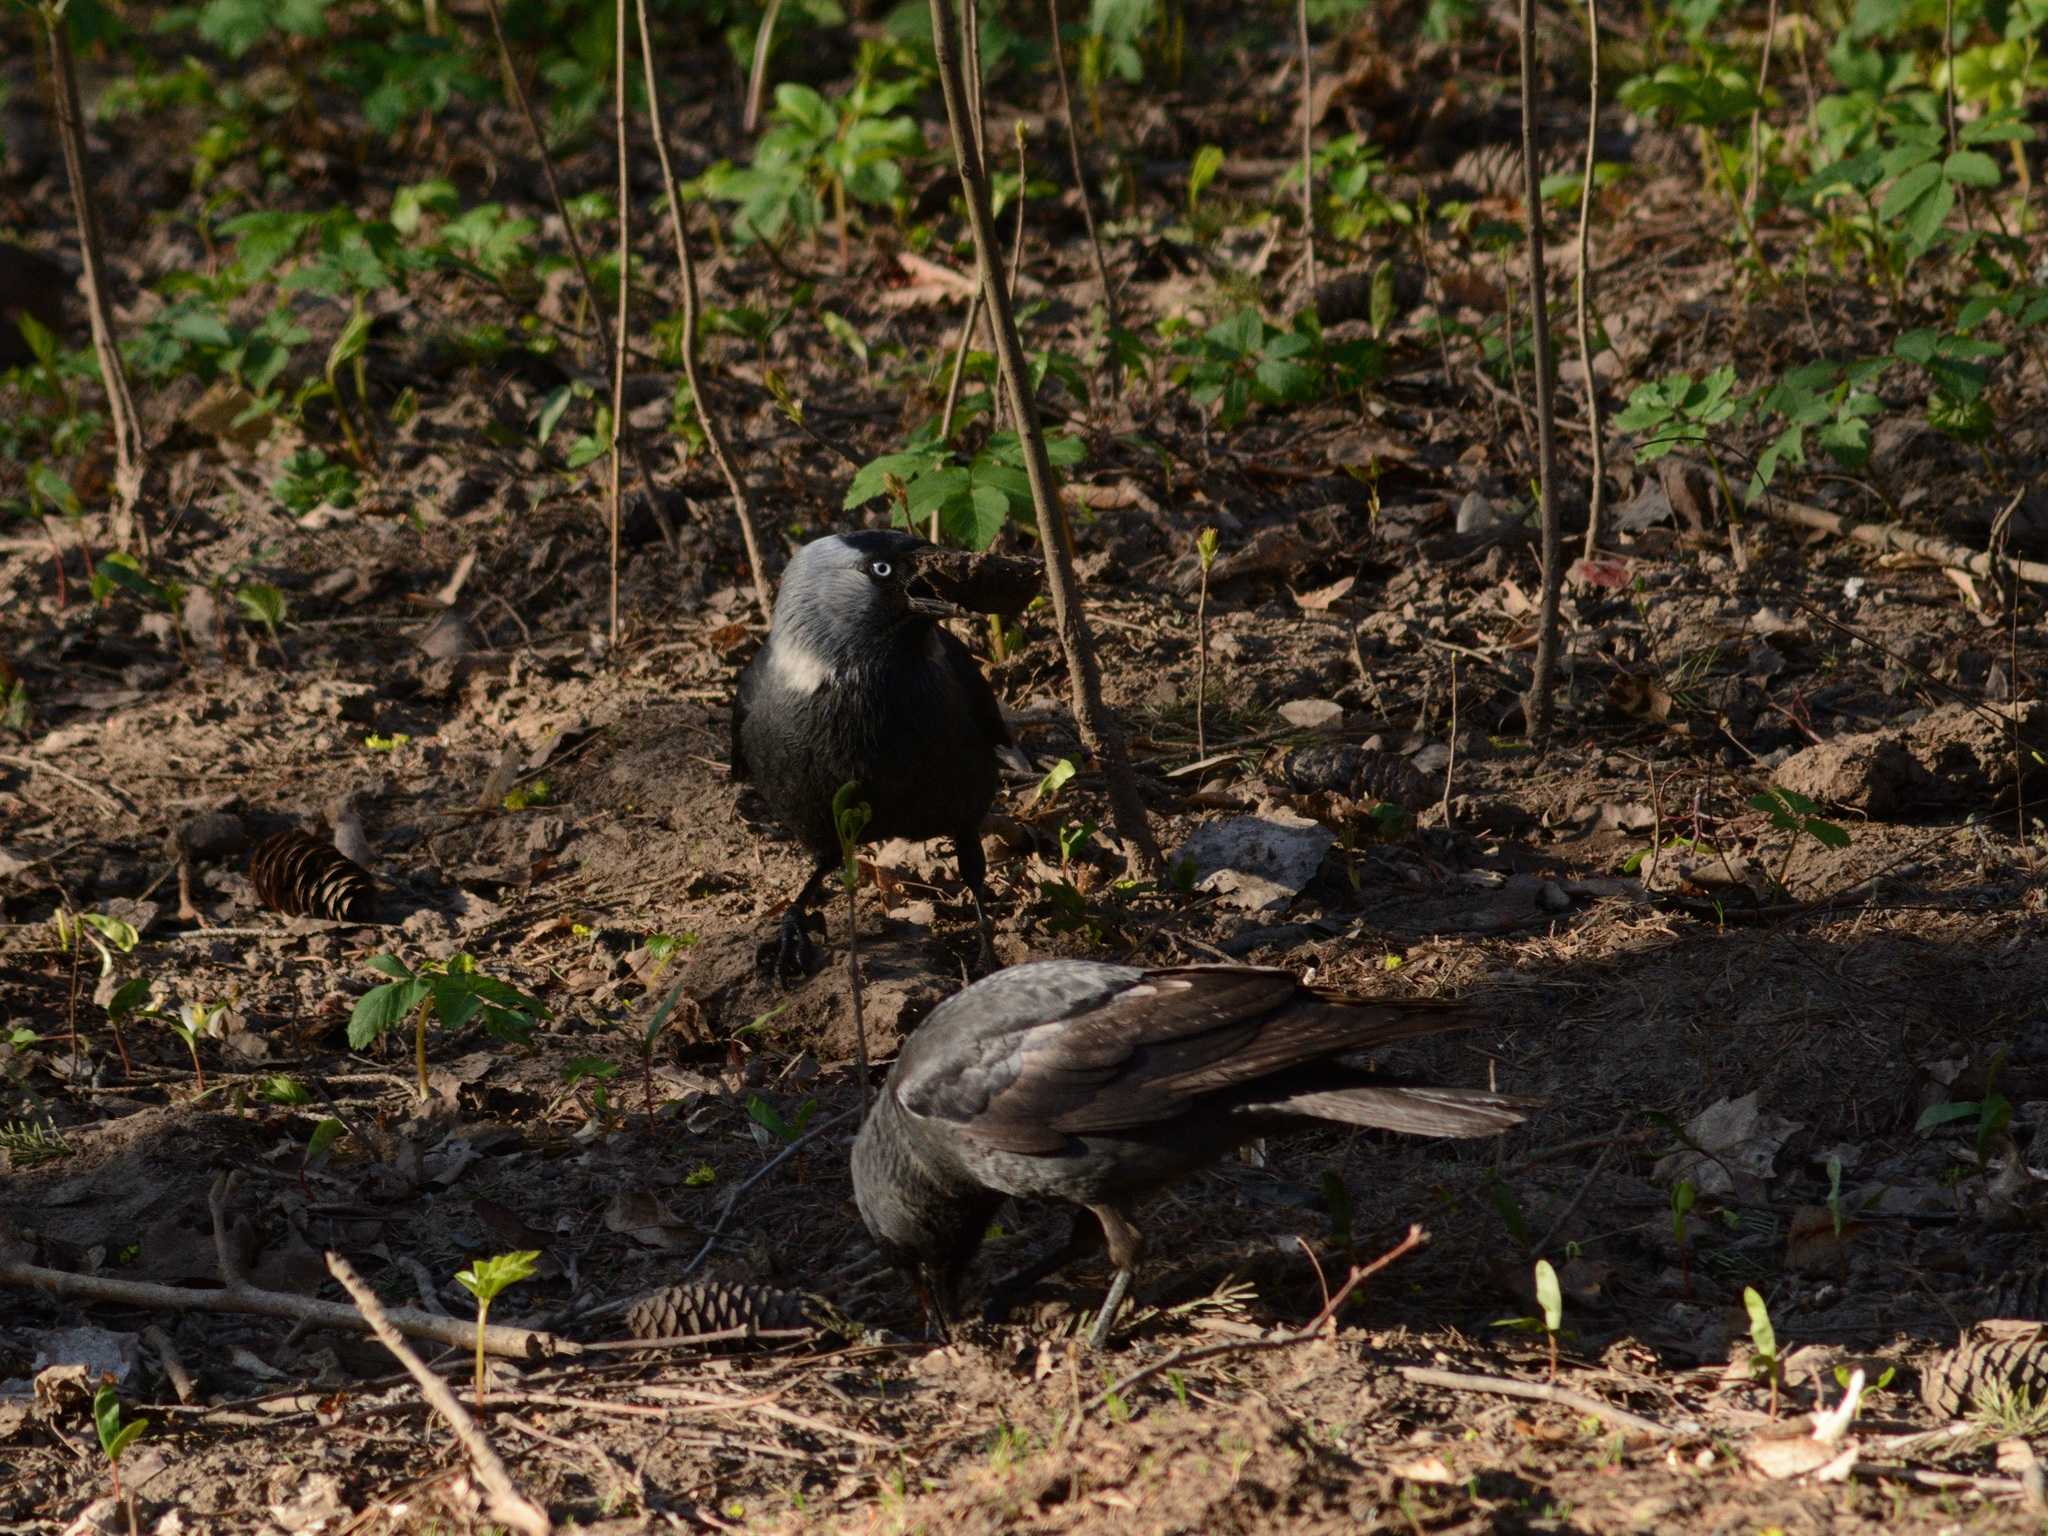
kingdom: Animalia
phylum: Chordata
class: Aves
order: Passeriformes
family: Corvidae
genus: Coloeus
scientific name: Coloeus monedula
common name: Western jackdaw
